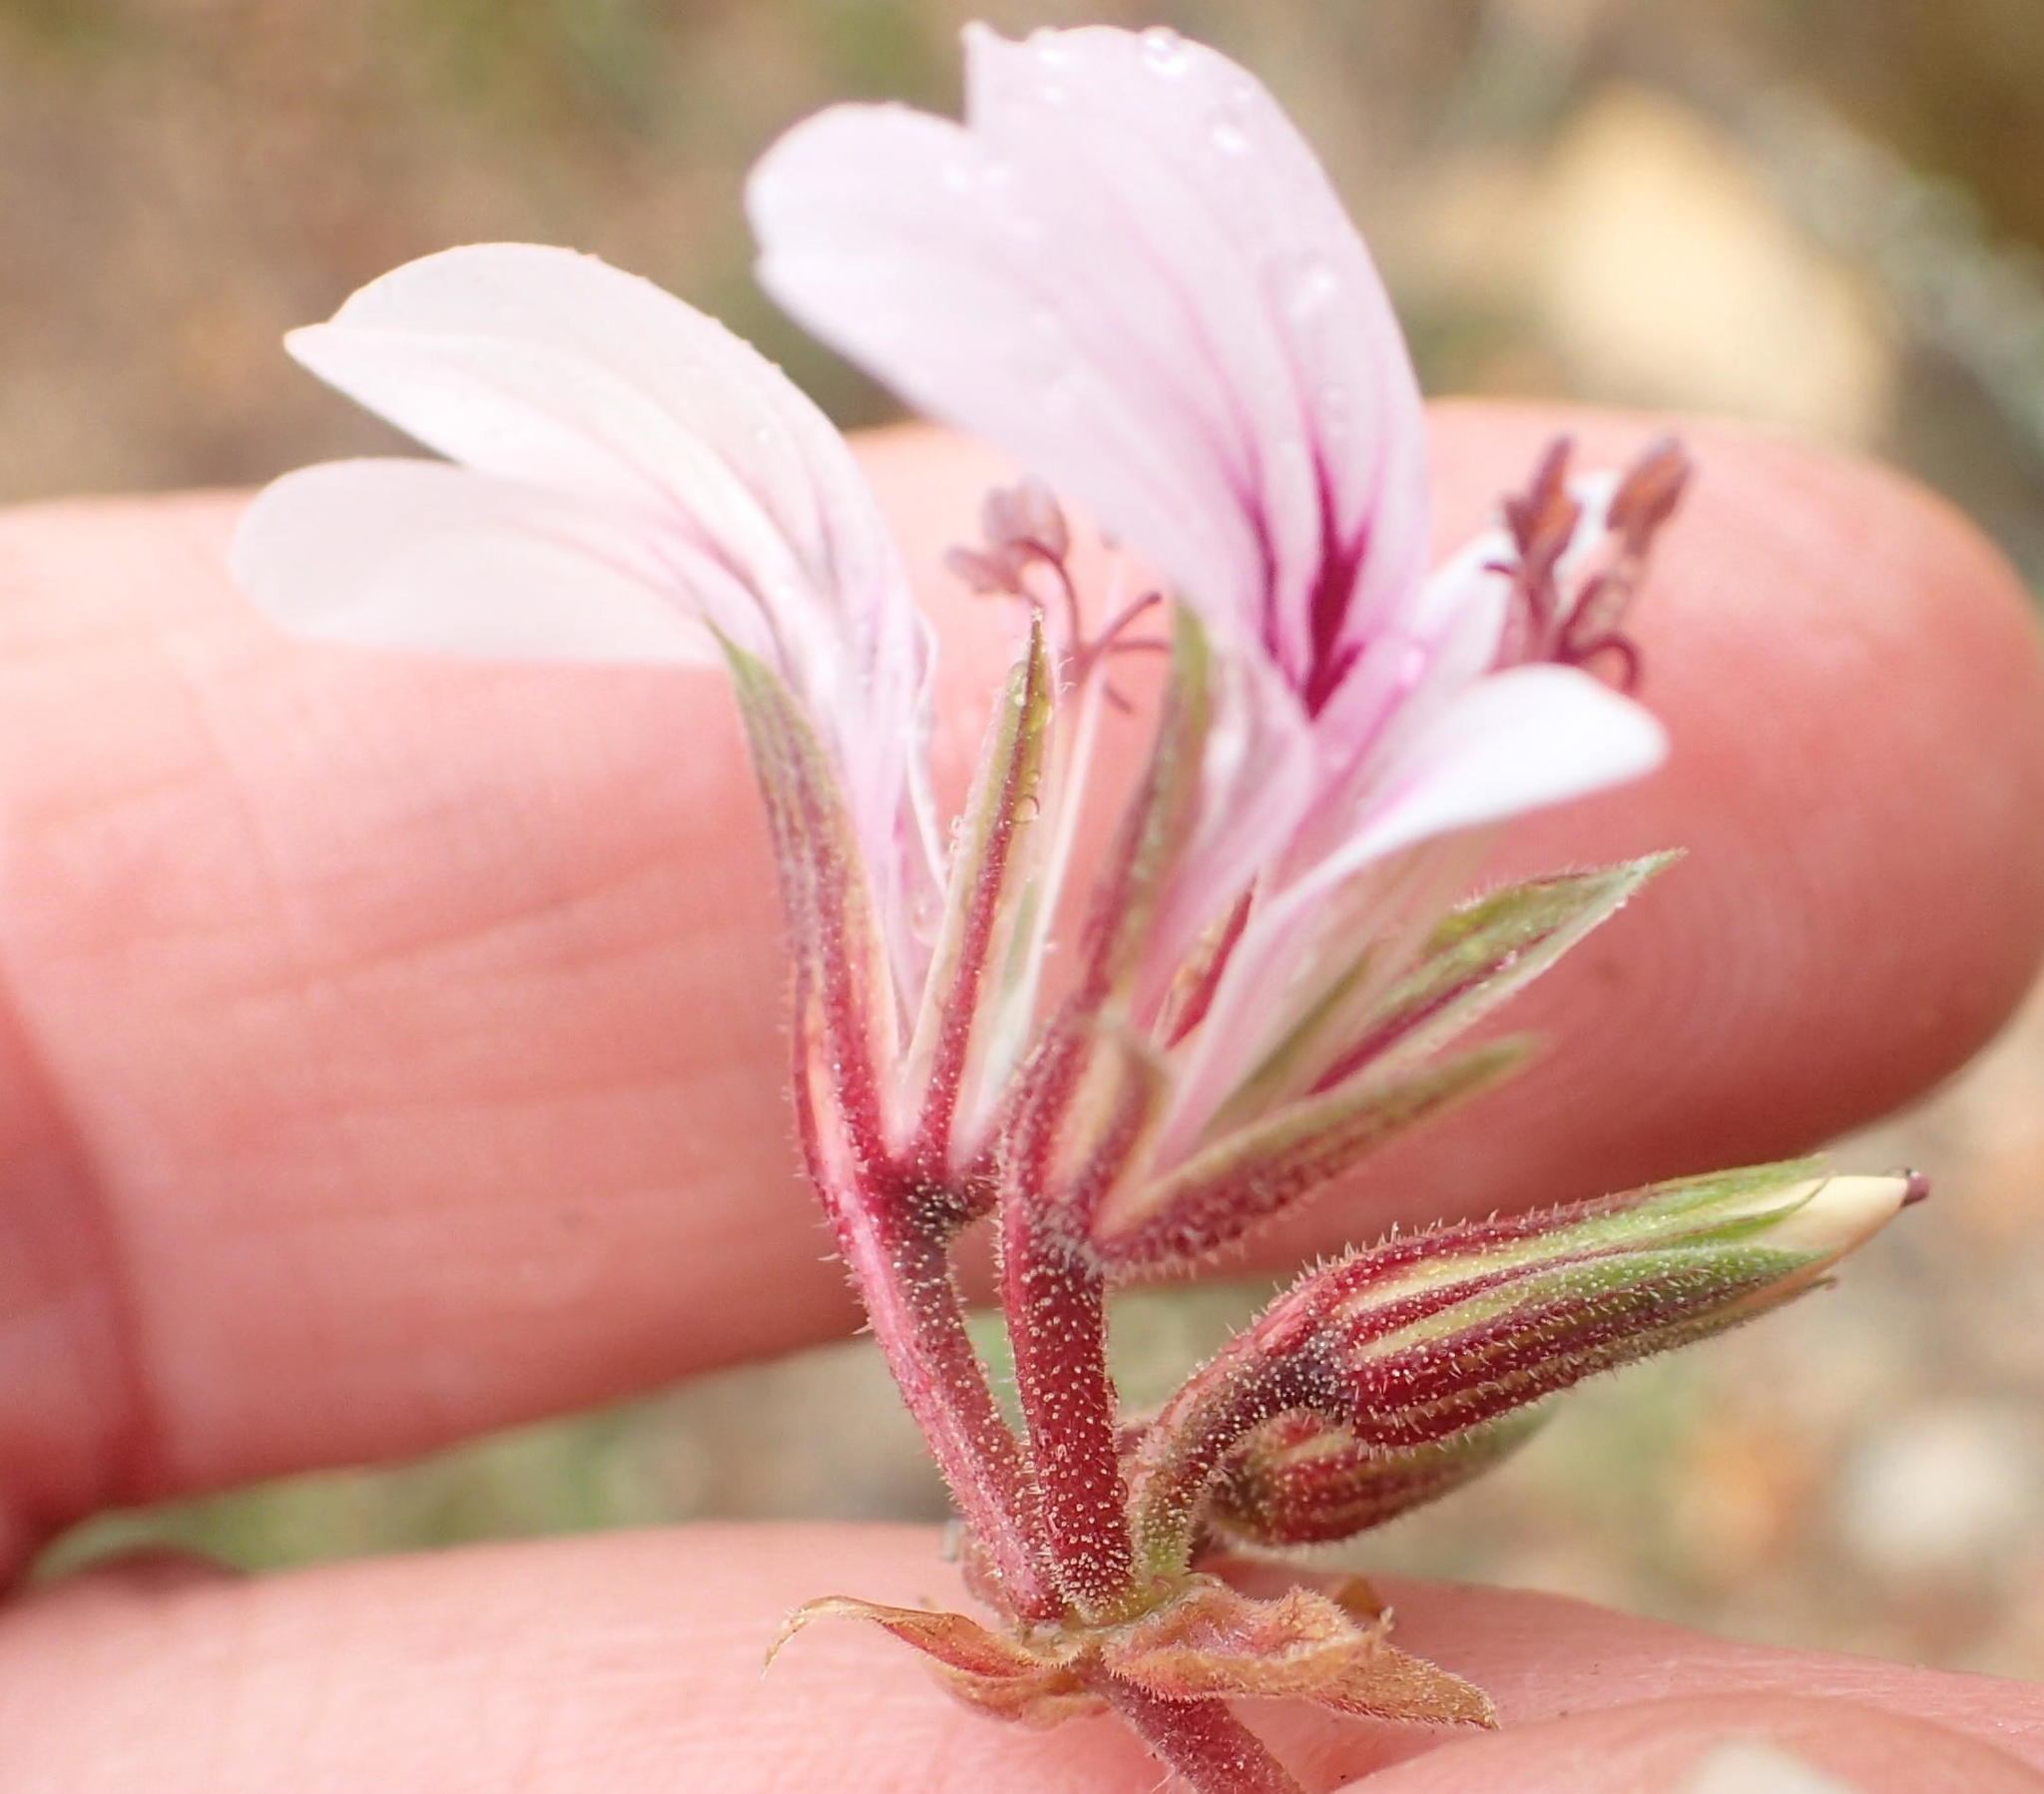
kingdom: Plantae
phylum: Tracheophyta
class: Magnoliopsida
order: Geraniales
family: Geraniaceae
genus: Pelargonium
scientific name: Pelargonium candicans
